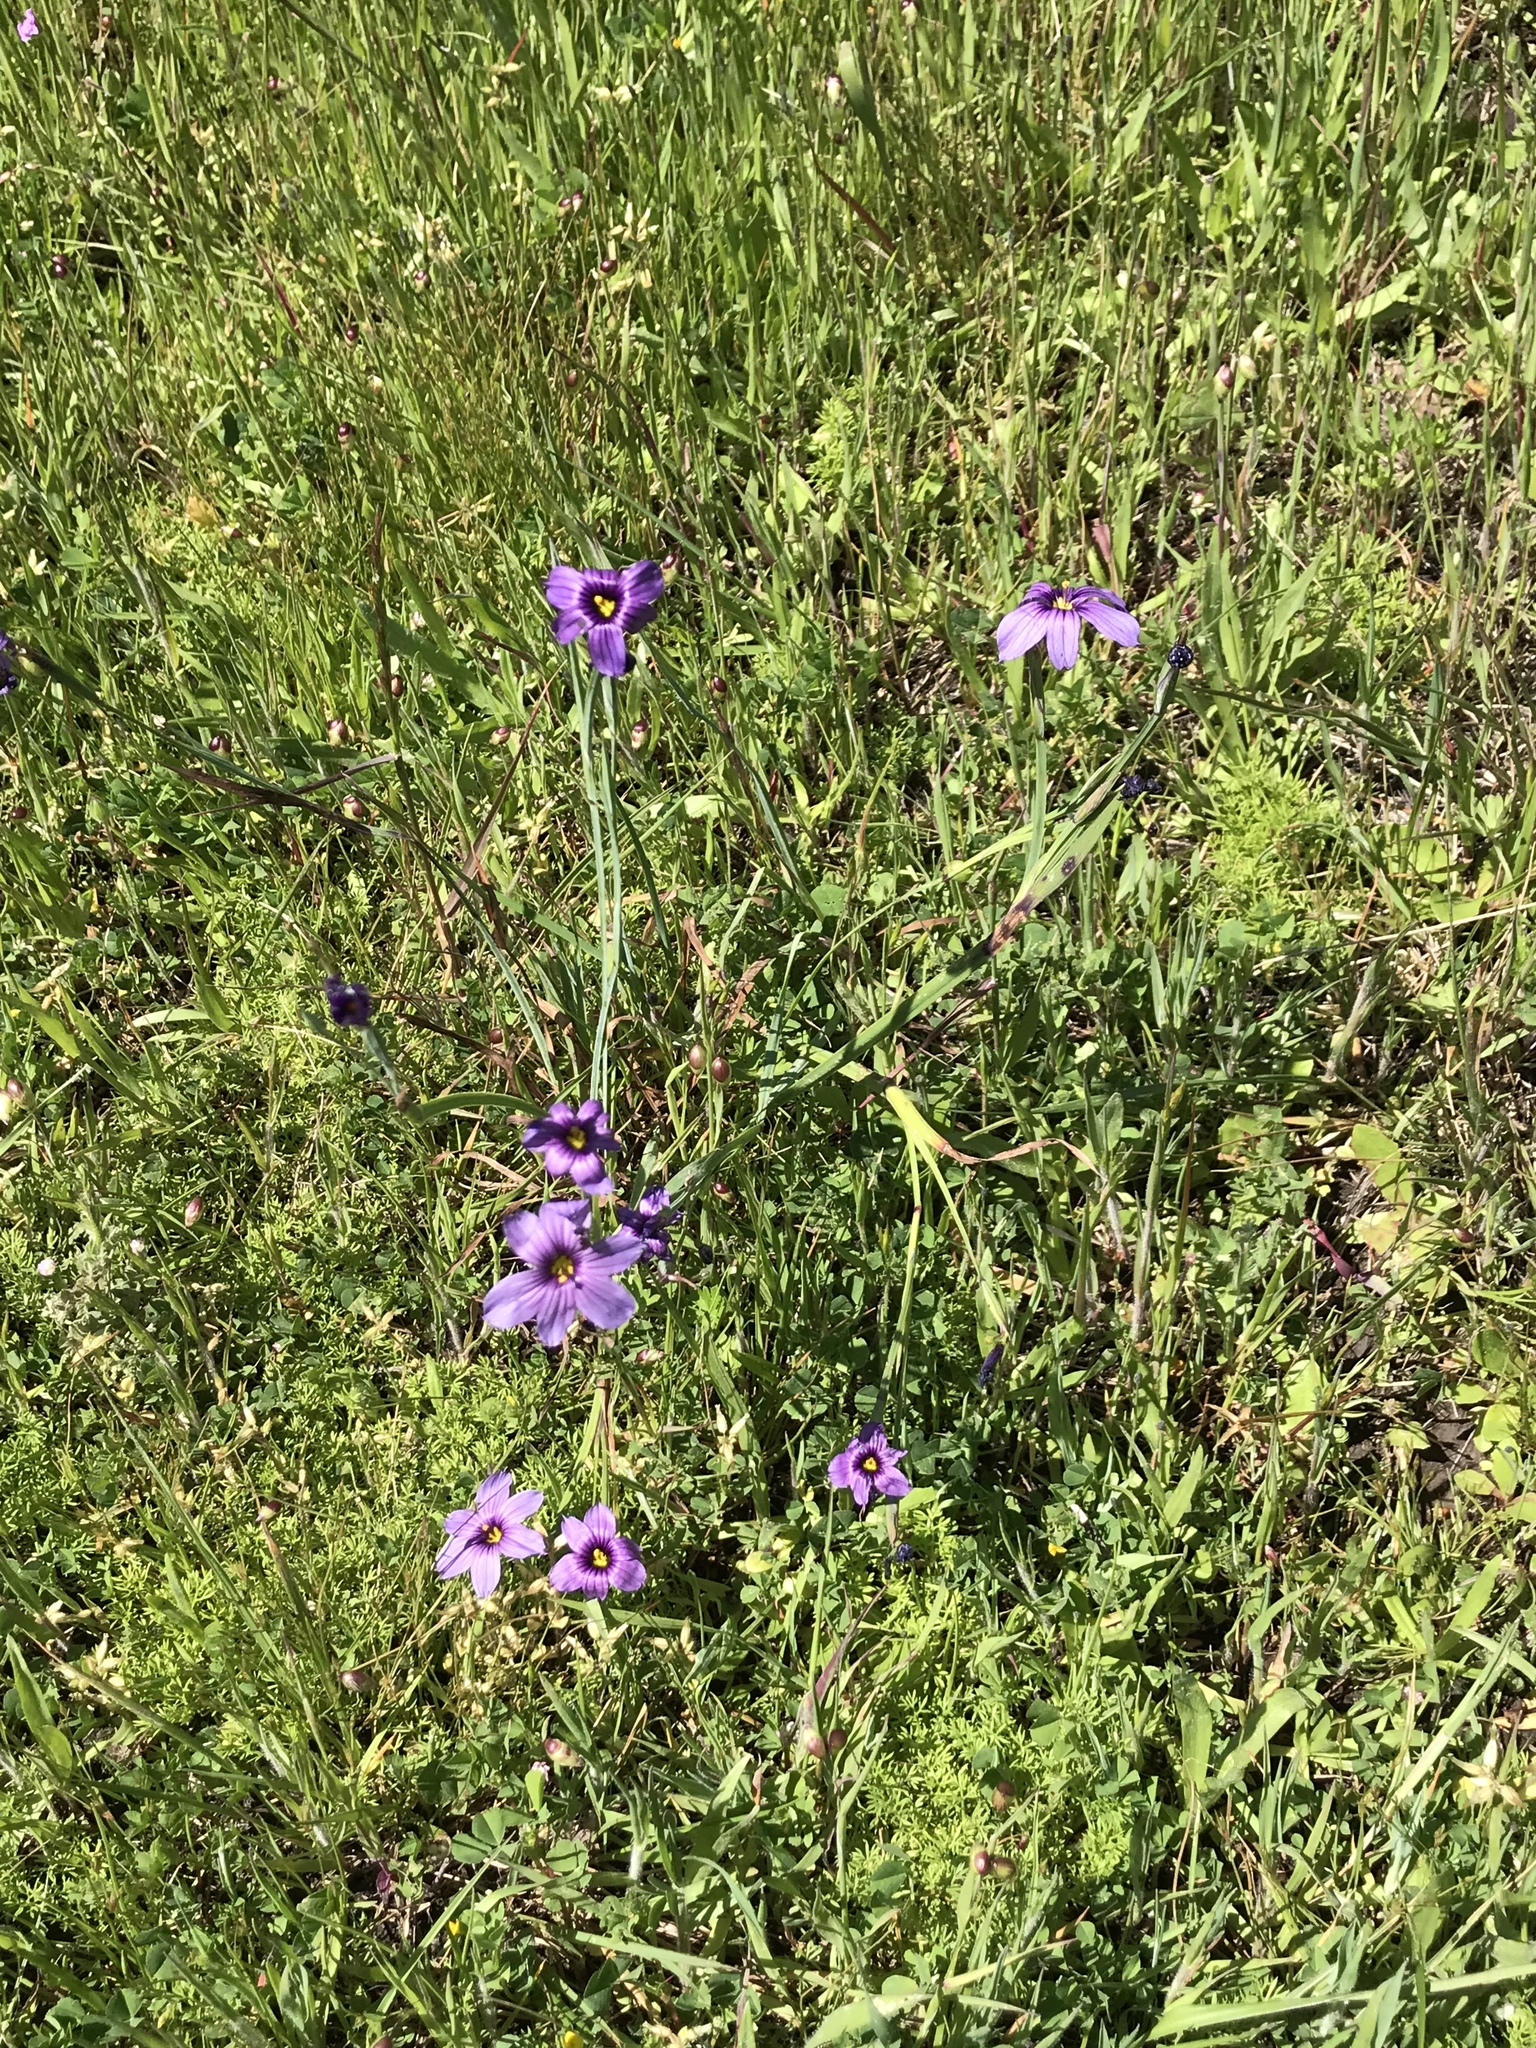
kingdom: Plantae
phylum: Tracheophyta
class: Liliopsida
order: Asparagales
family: Iridaceae
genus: Sisyrinchium
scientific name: Sisyrinchium bellum
